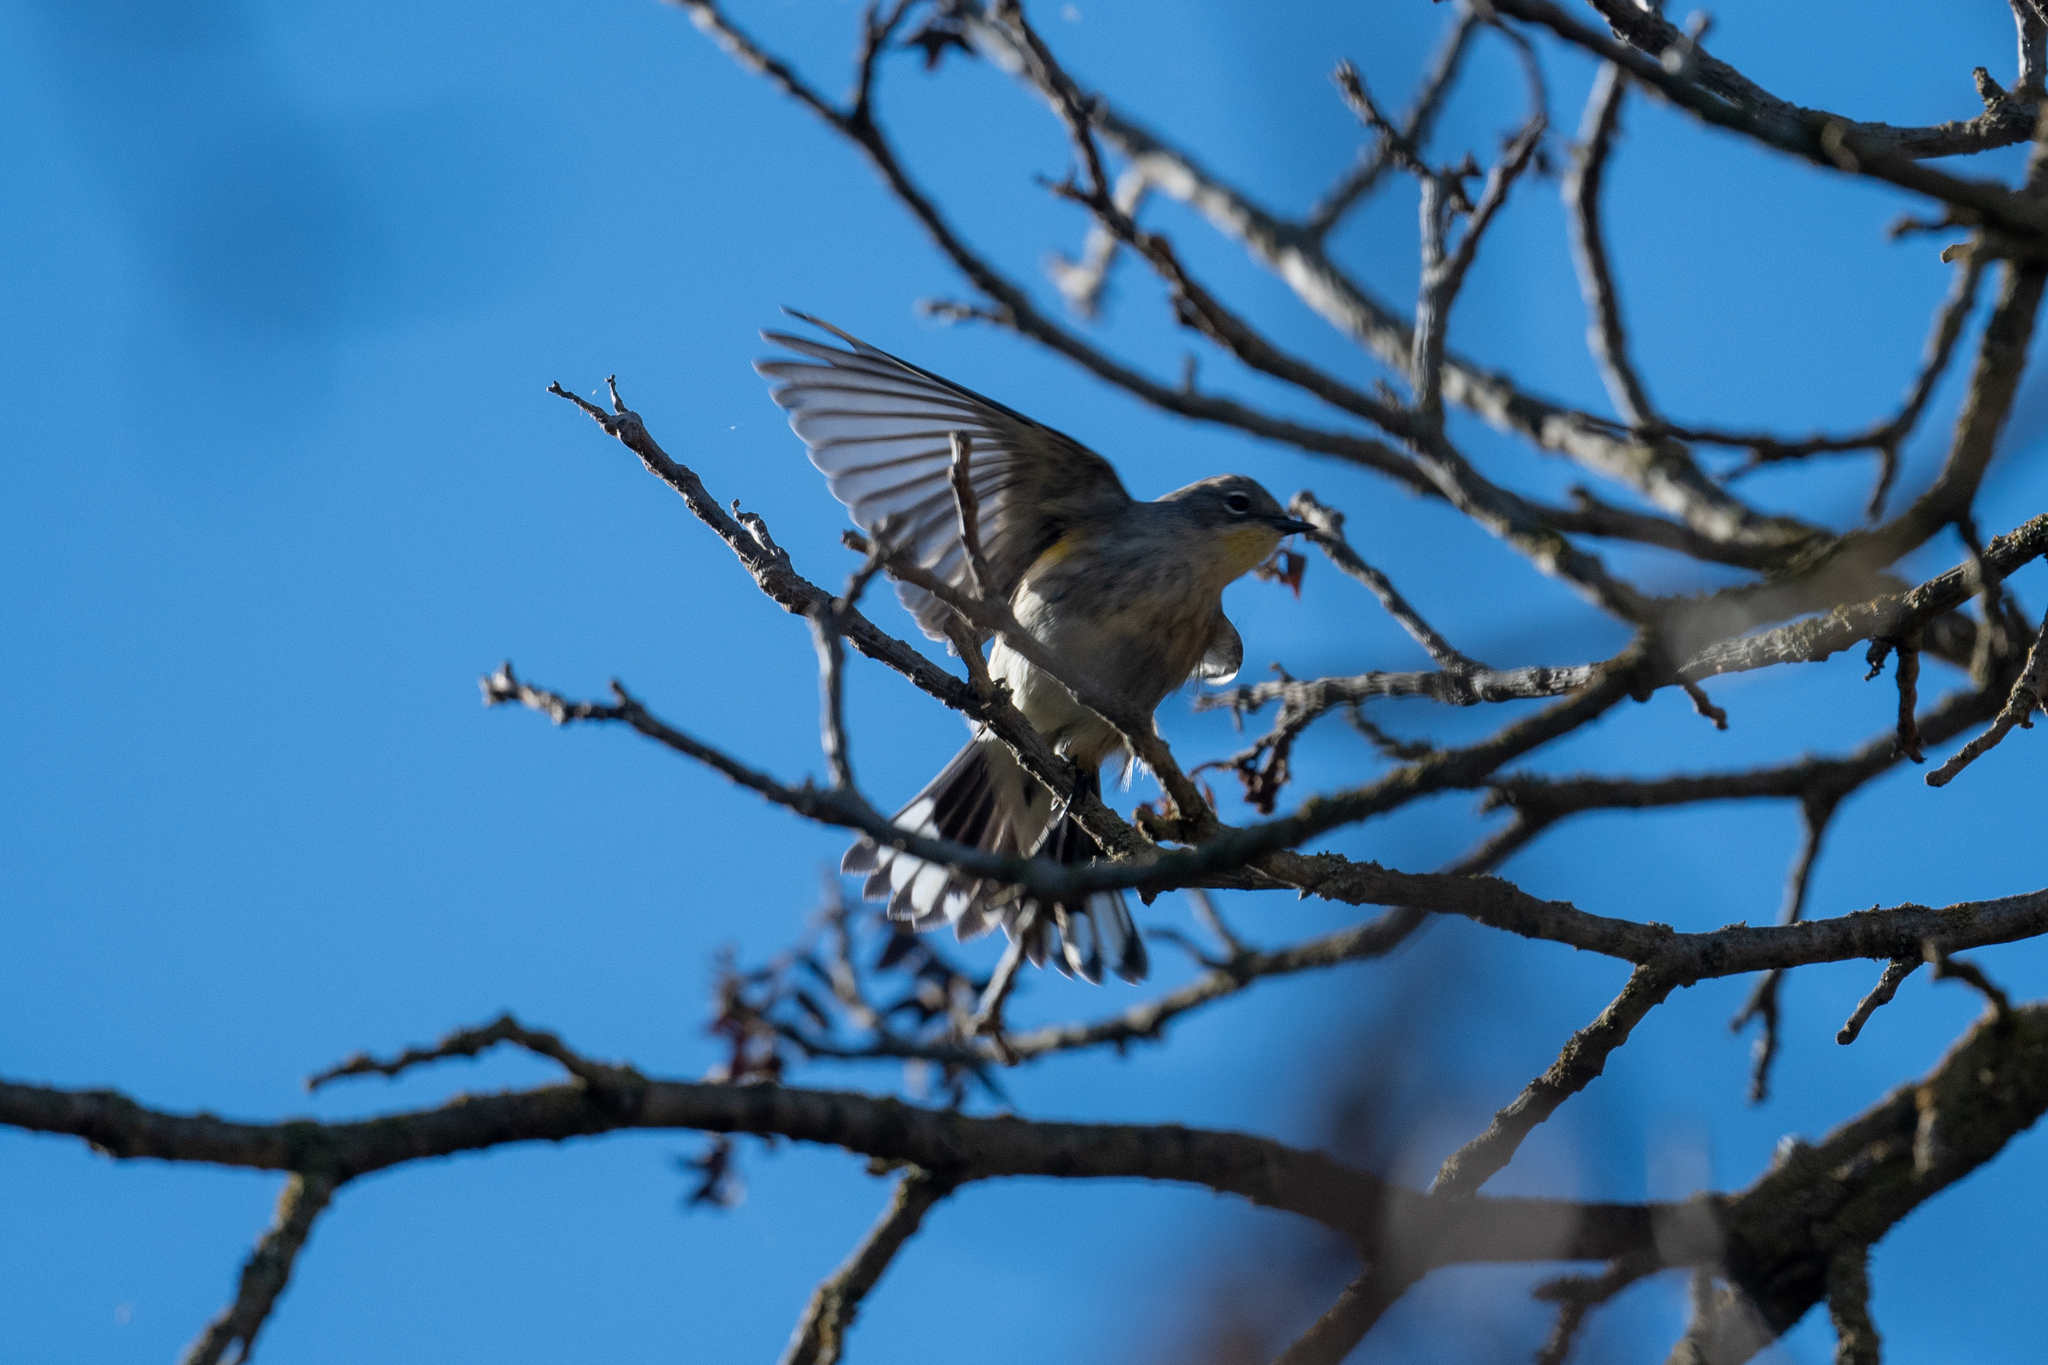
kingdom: Animalia
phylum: Chordata
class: Aves
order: Passeriformes
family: Parulidae
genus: Setophaga
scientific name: Setophaga coronata
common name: Myrtle warbler
